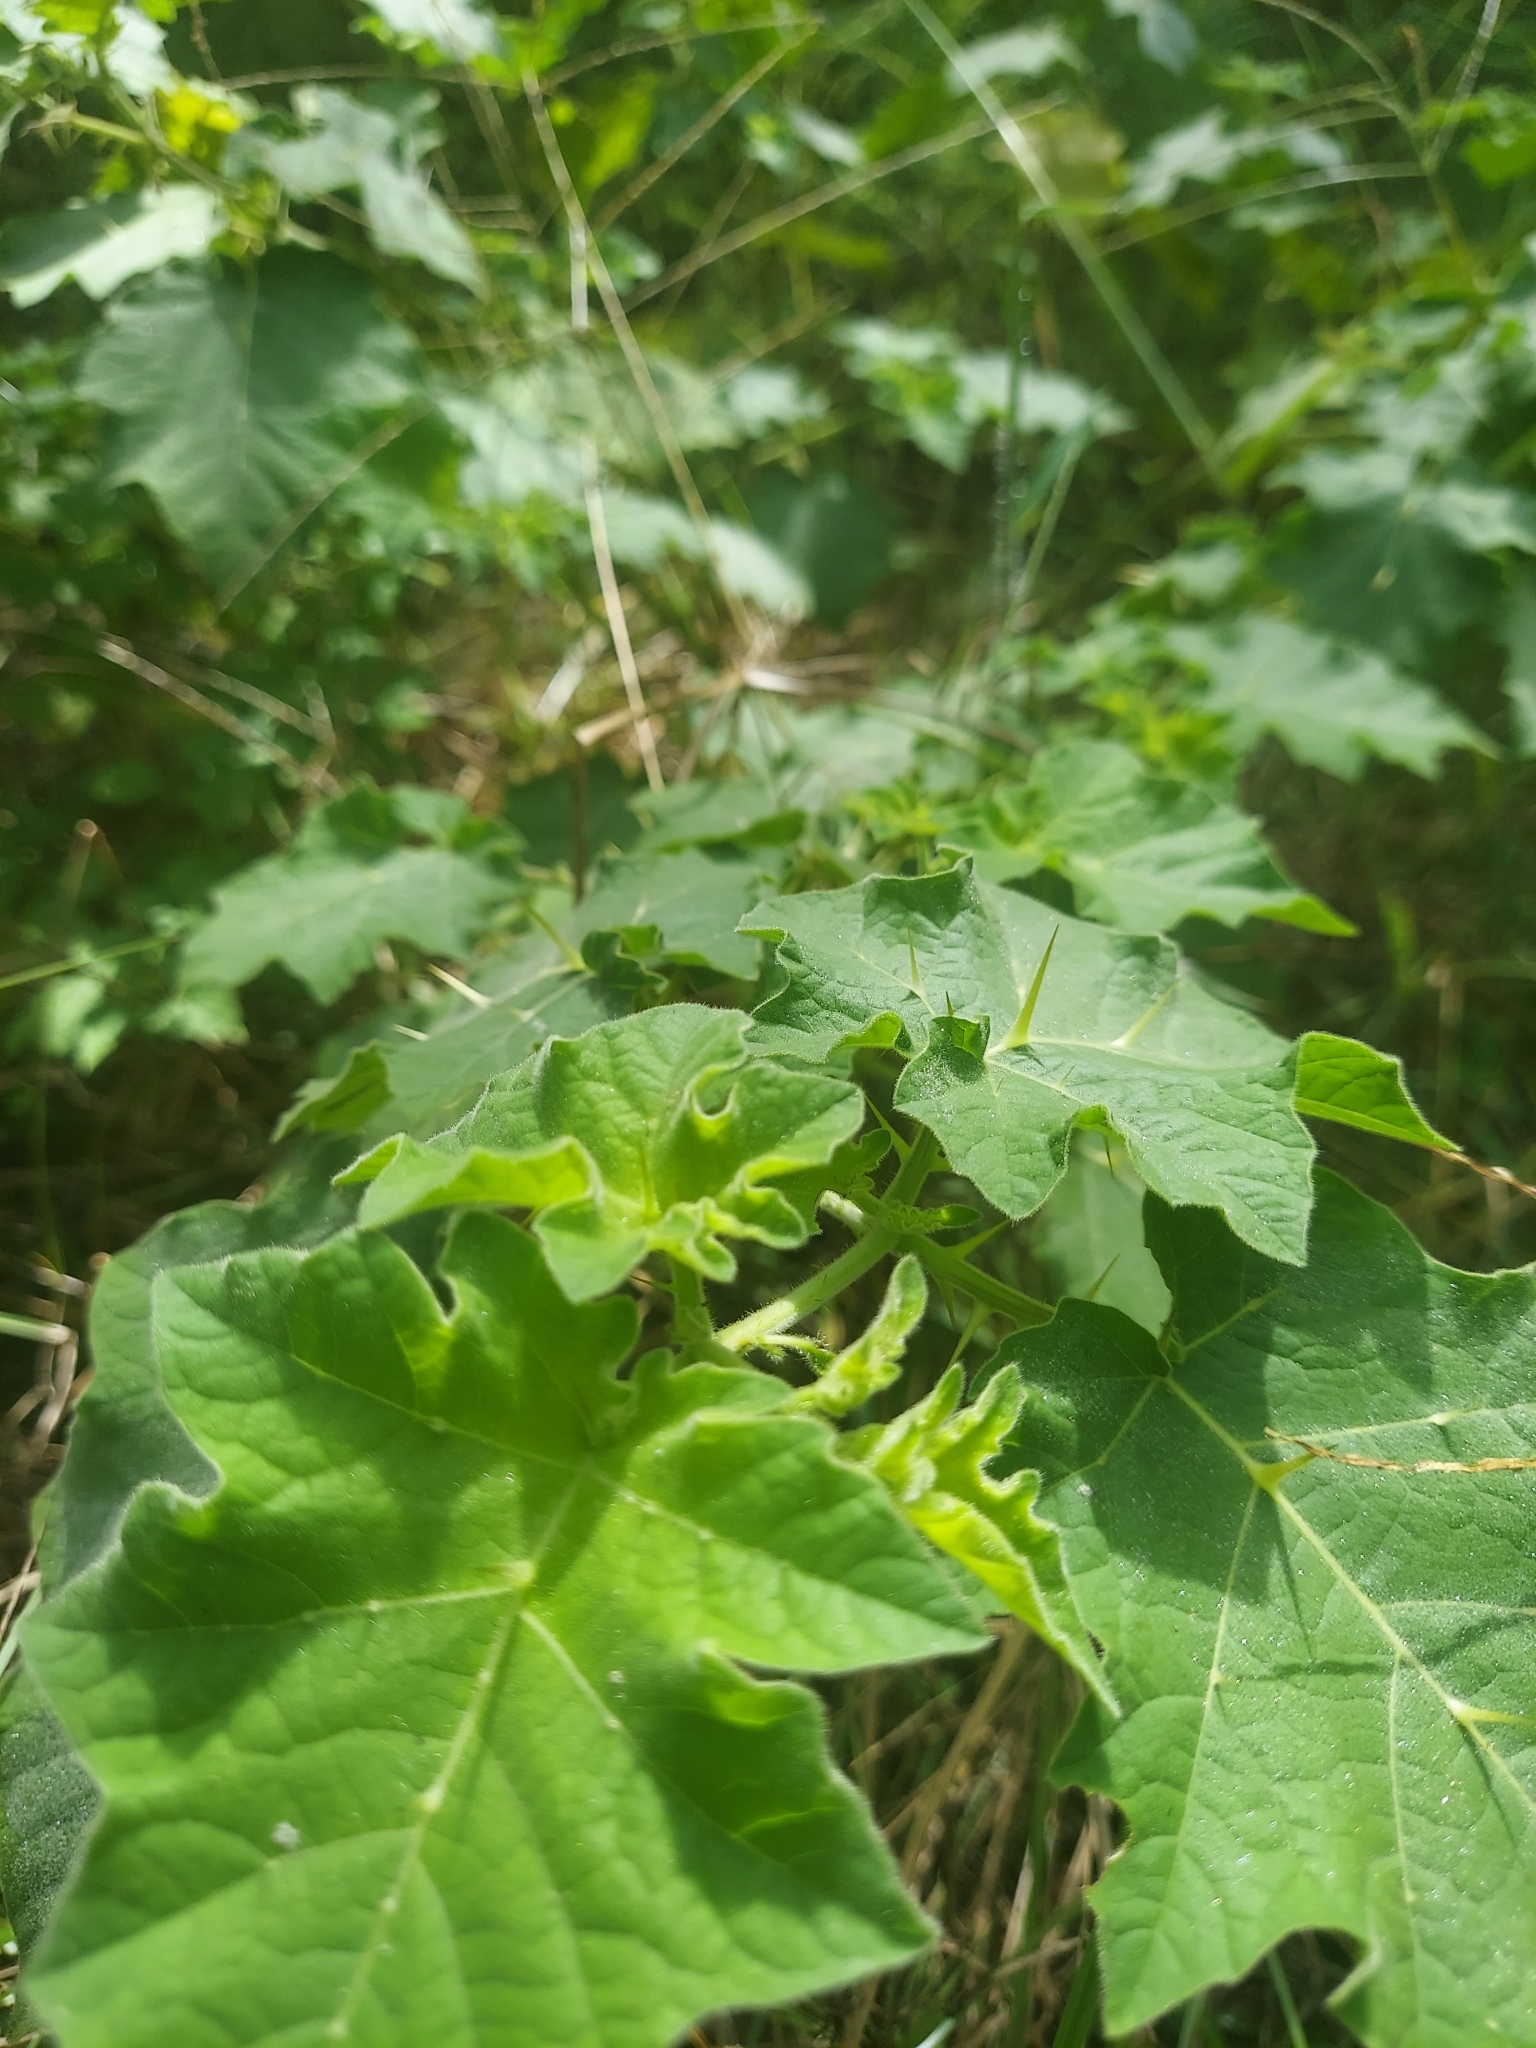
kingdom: Plantae
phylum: Tracheophyta
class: Magnoliopsida
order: Solanales
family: Solanaceae
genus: Solanum
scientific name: Solanum viarum
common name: Tropical soda apple
